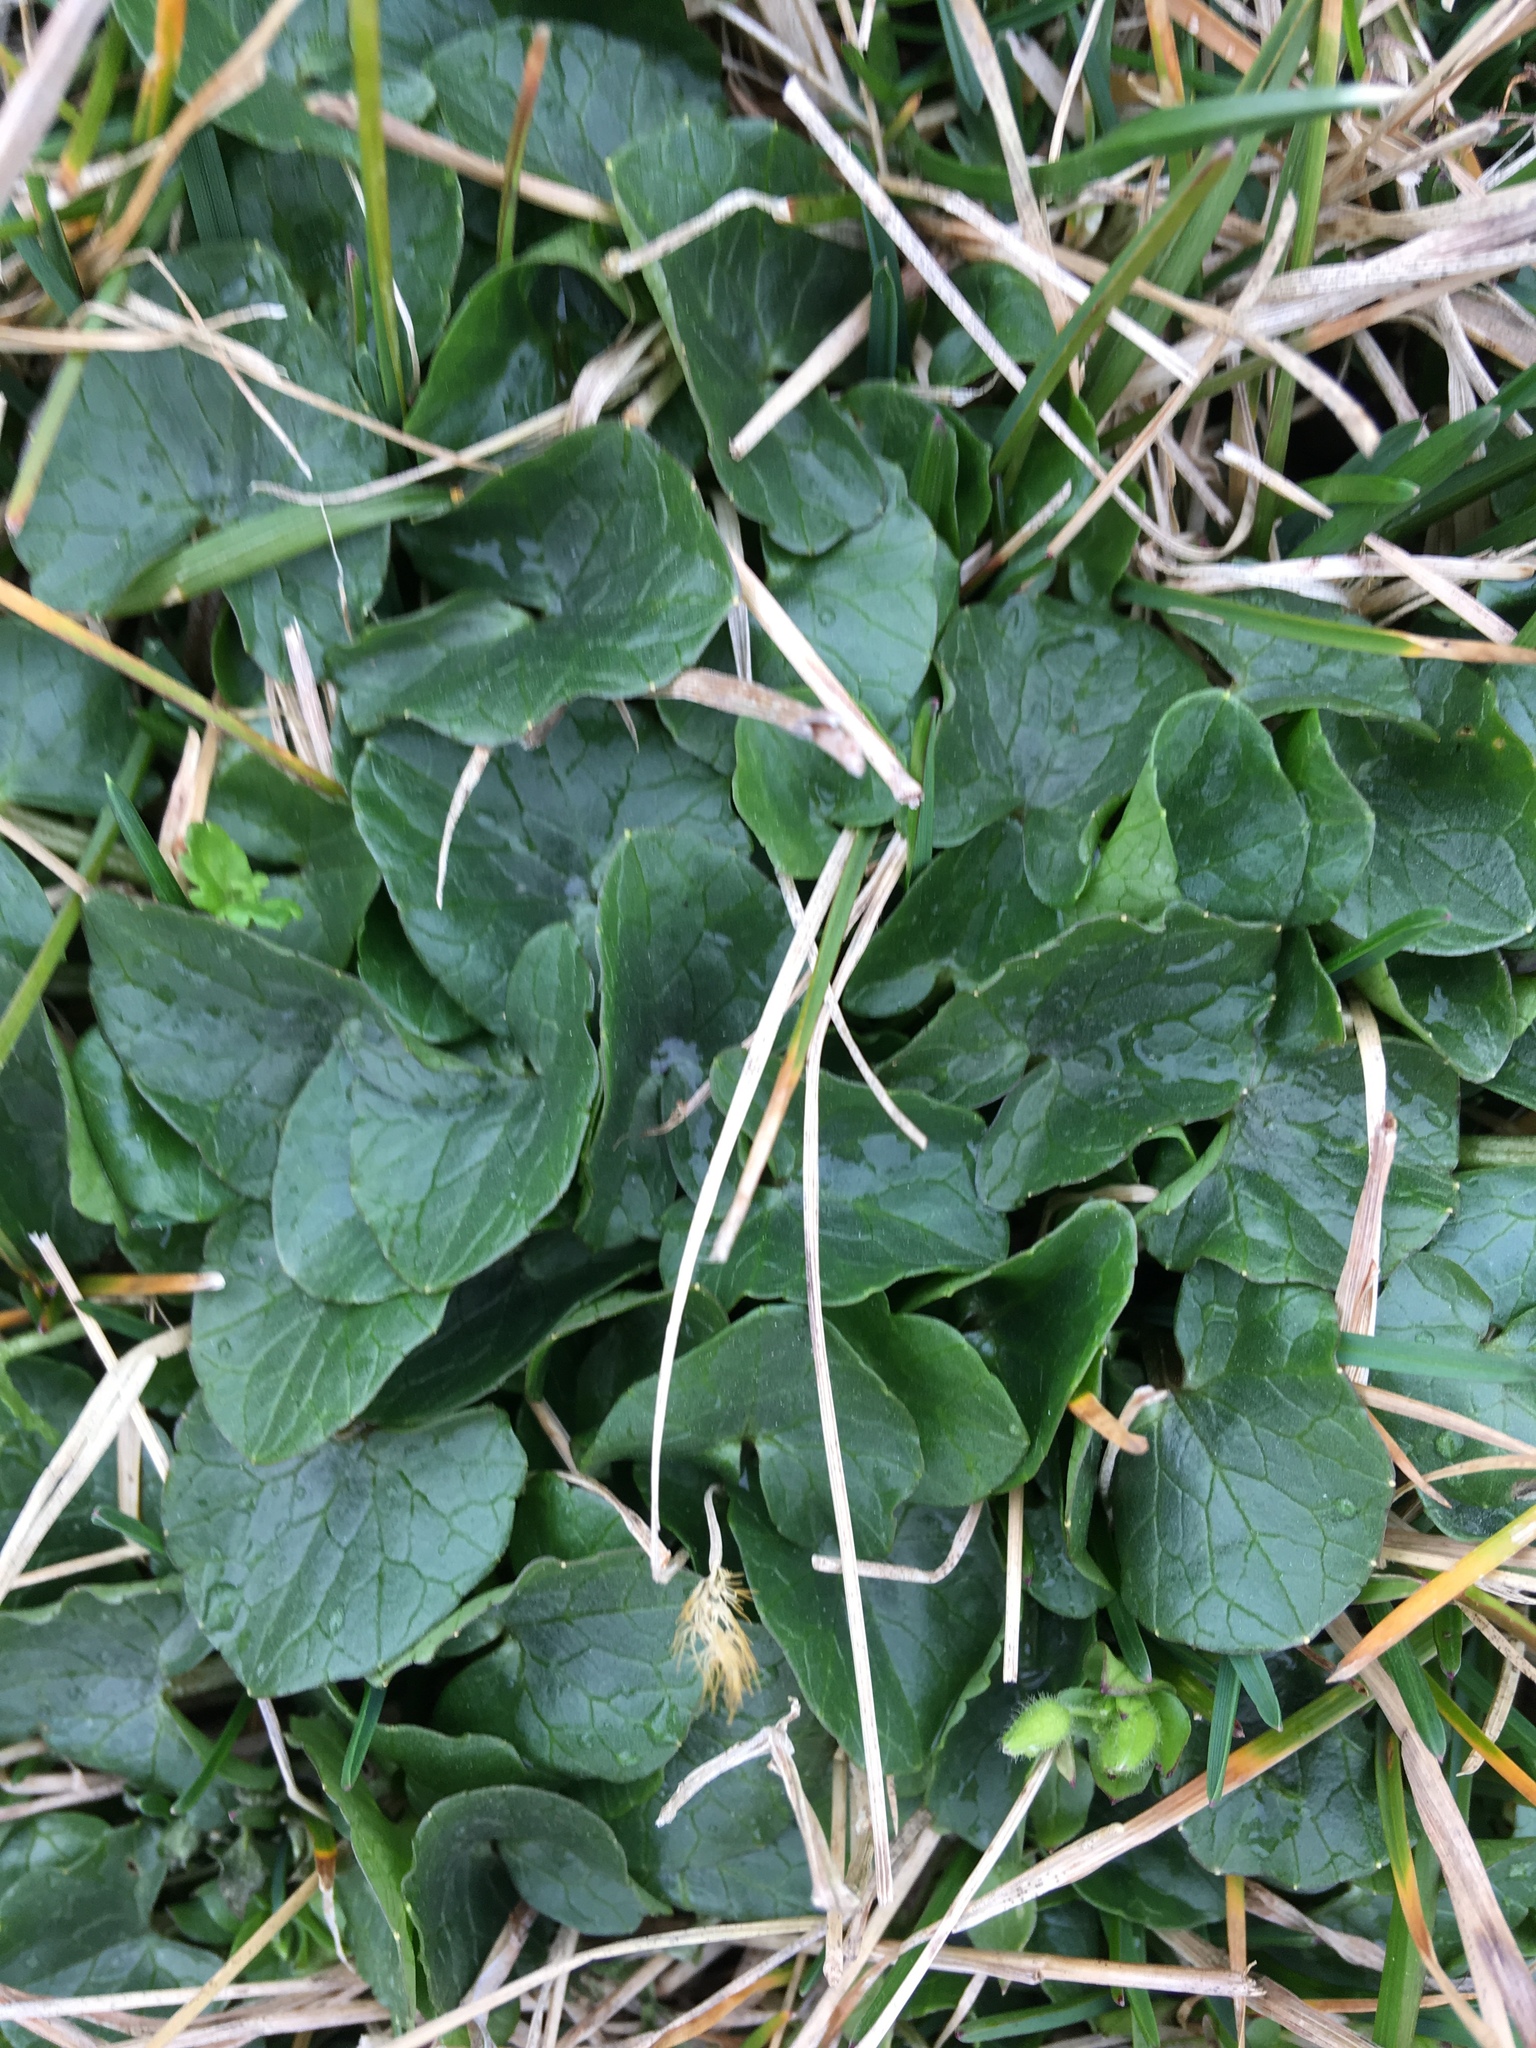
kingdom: Plantae
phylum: Tracheophyta
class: Magnoliopsida
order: Ranunculales
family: Ranunculaceae
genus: Ficaria
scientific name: Ficaria verna
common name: Lesser celandine
